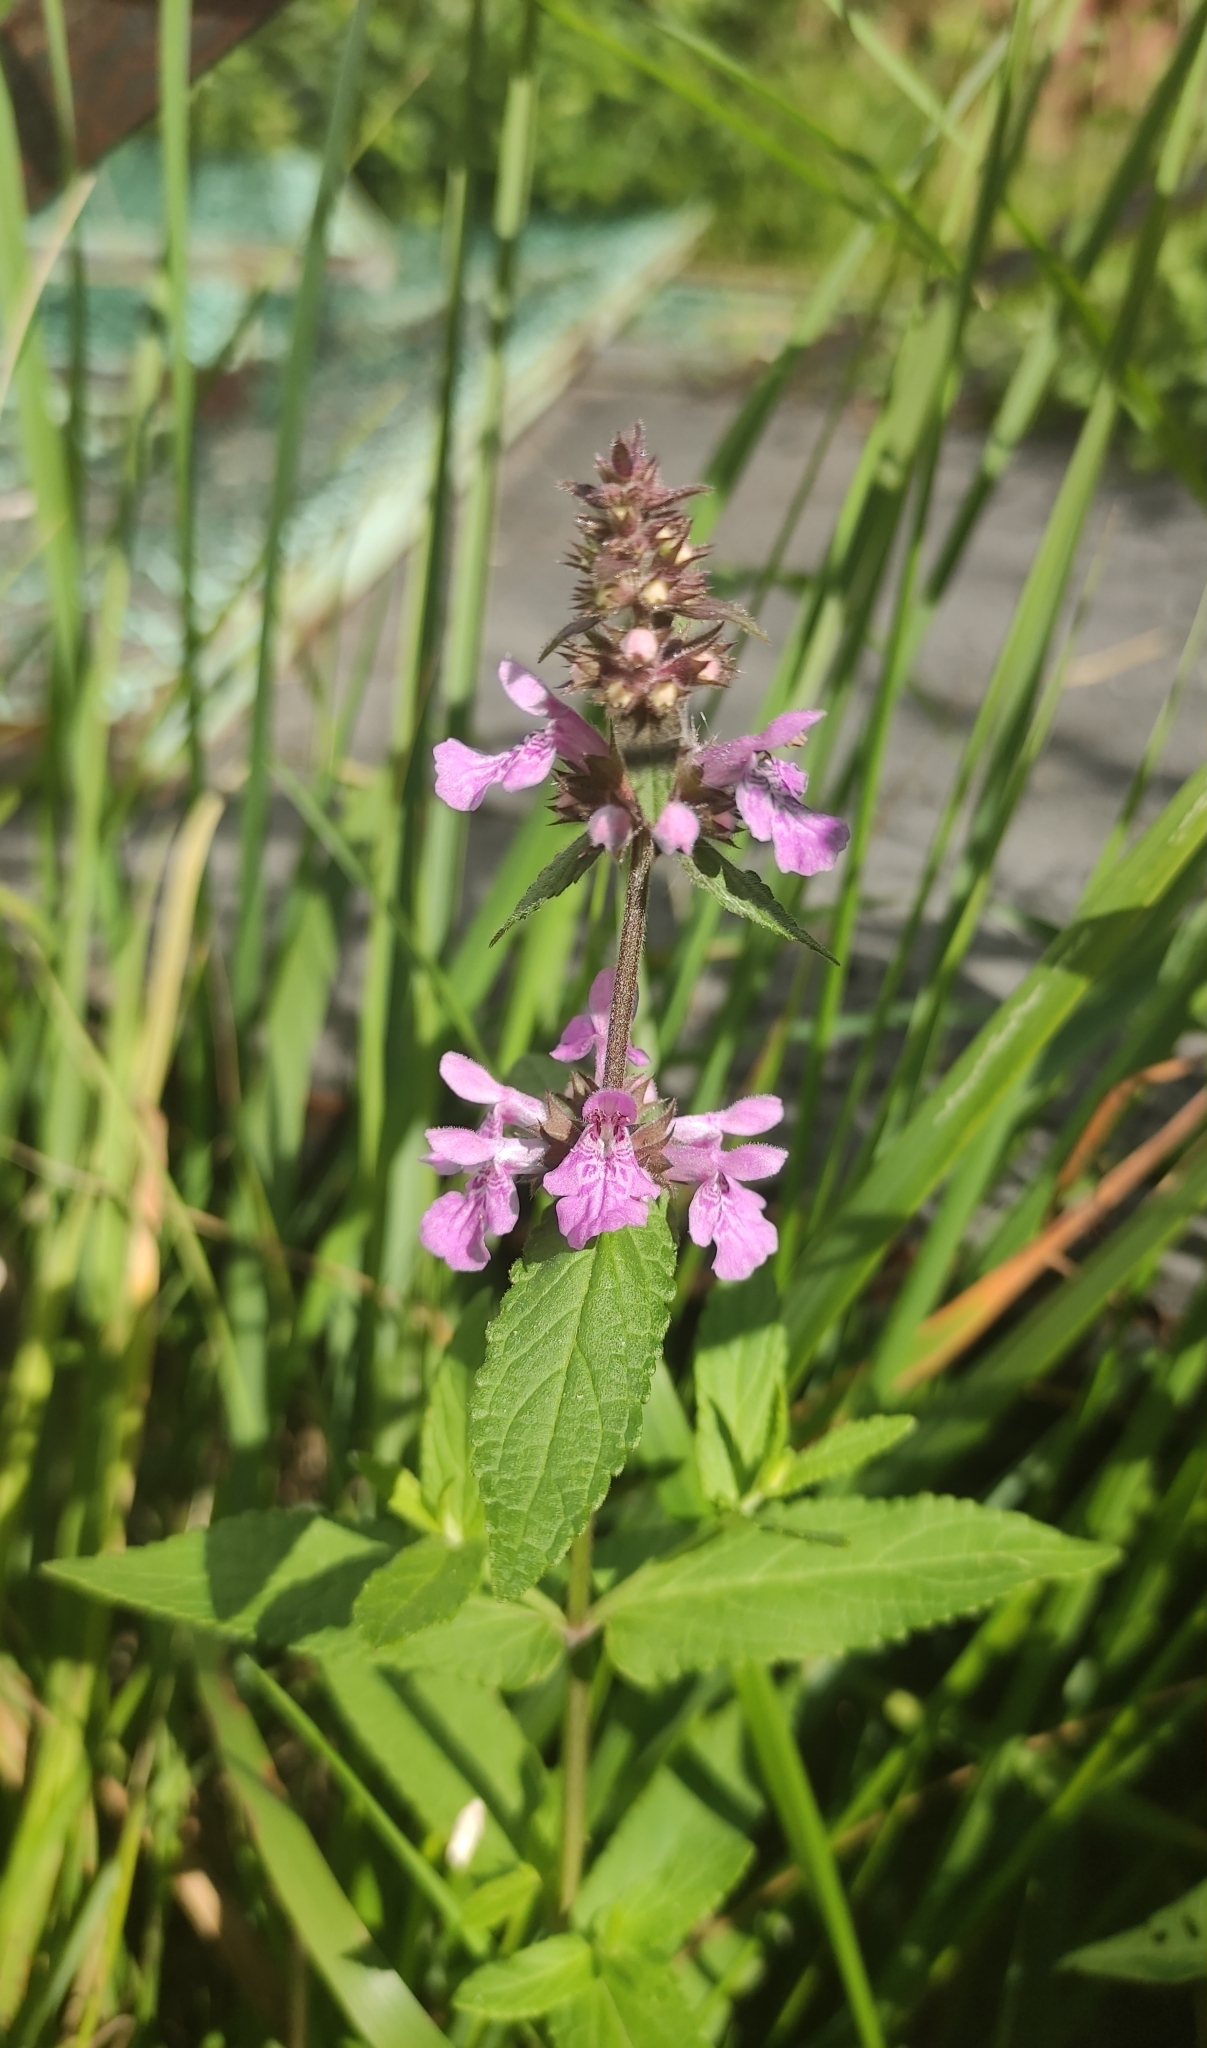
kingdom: Plantae
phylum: Tracheophyta
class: Magnoliopsida
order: Lamiales
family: Lamiaceae
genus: Stachys
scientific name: Stachys palustris
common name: Marsh woundwort
